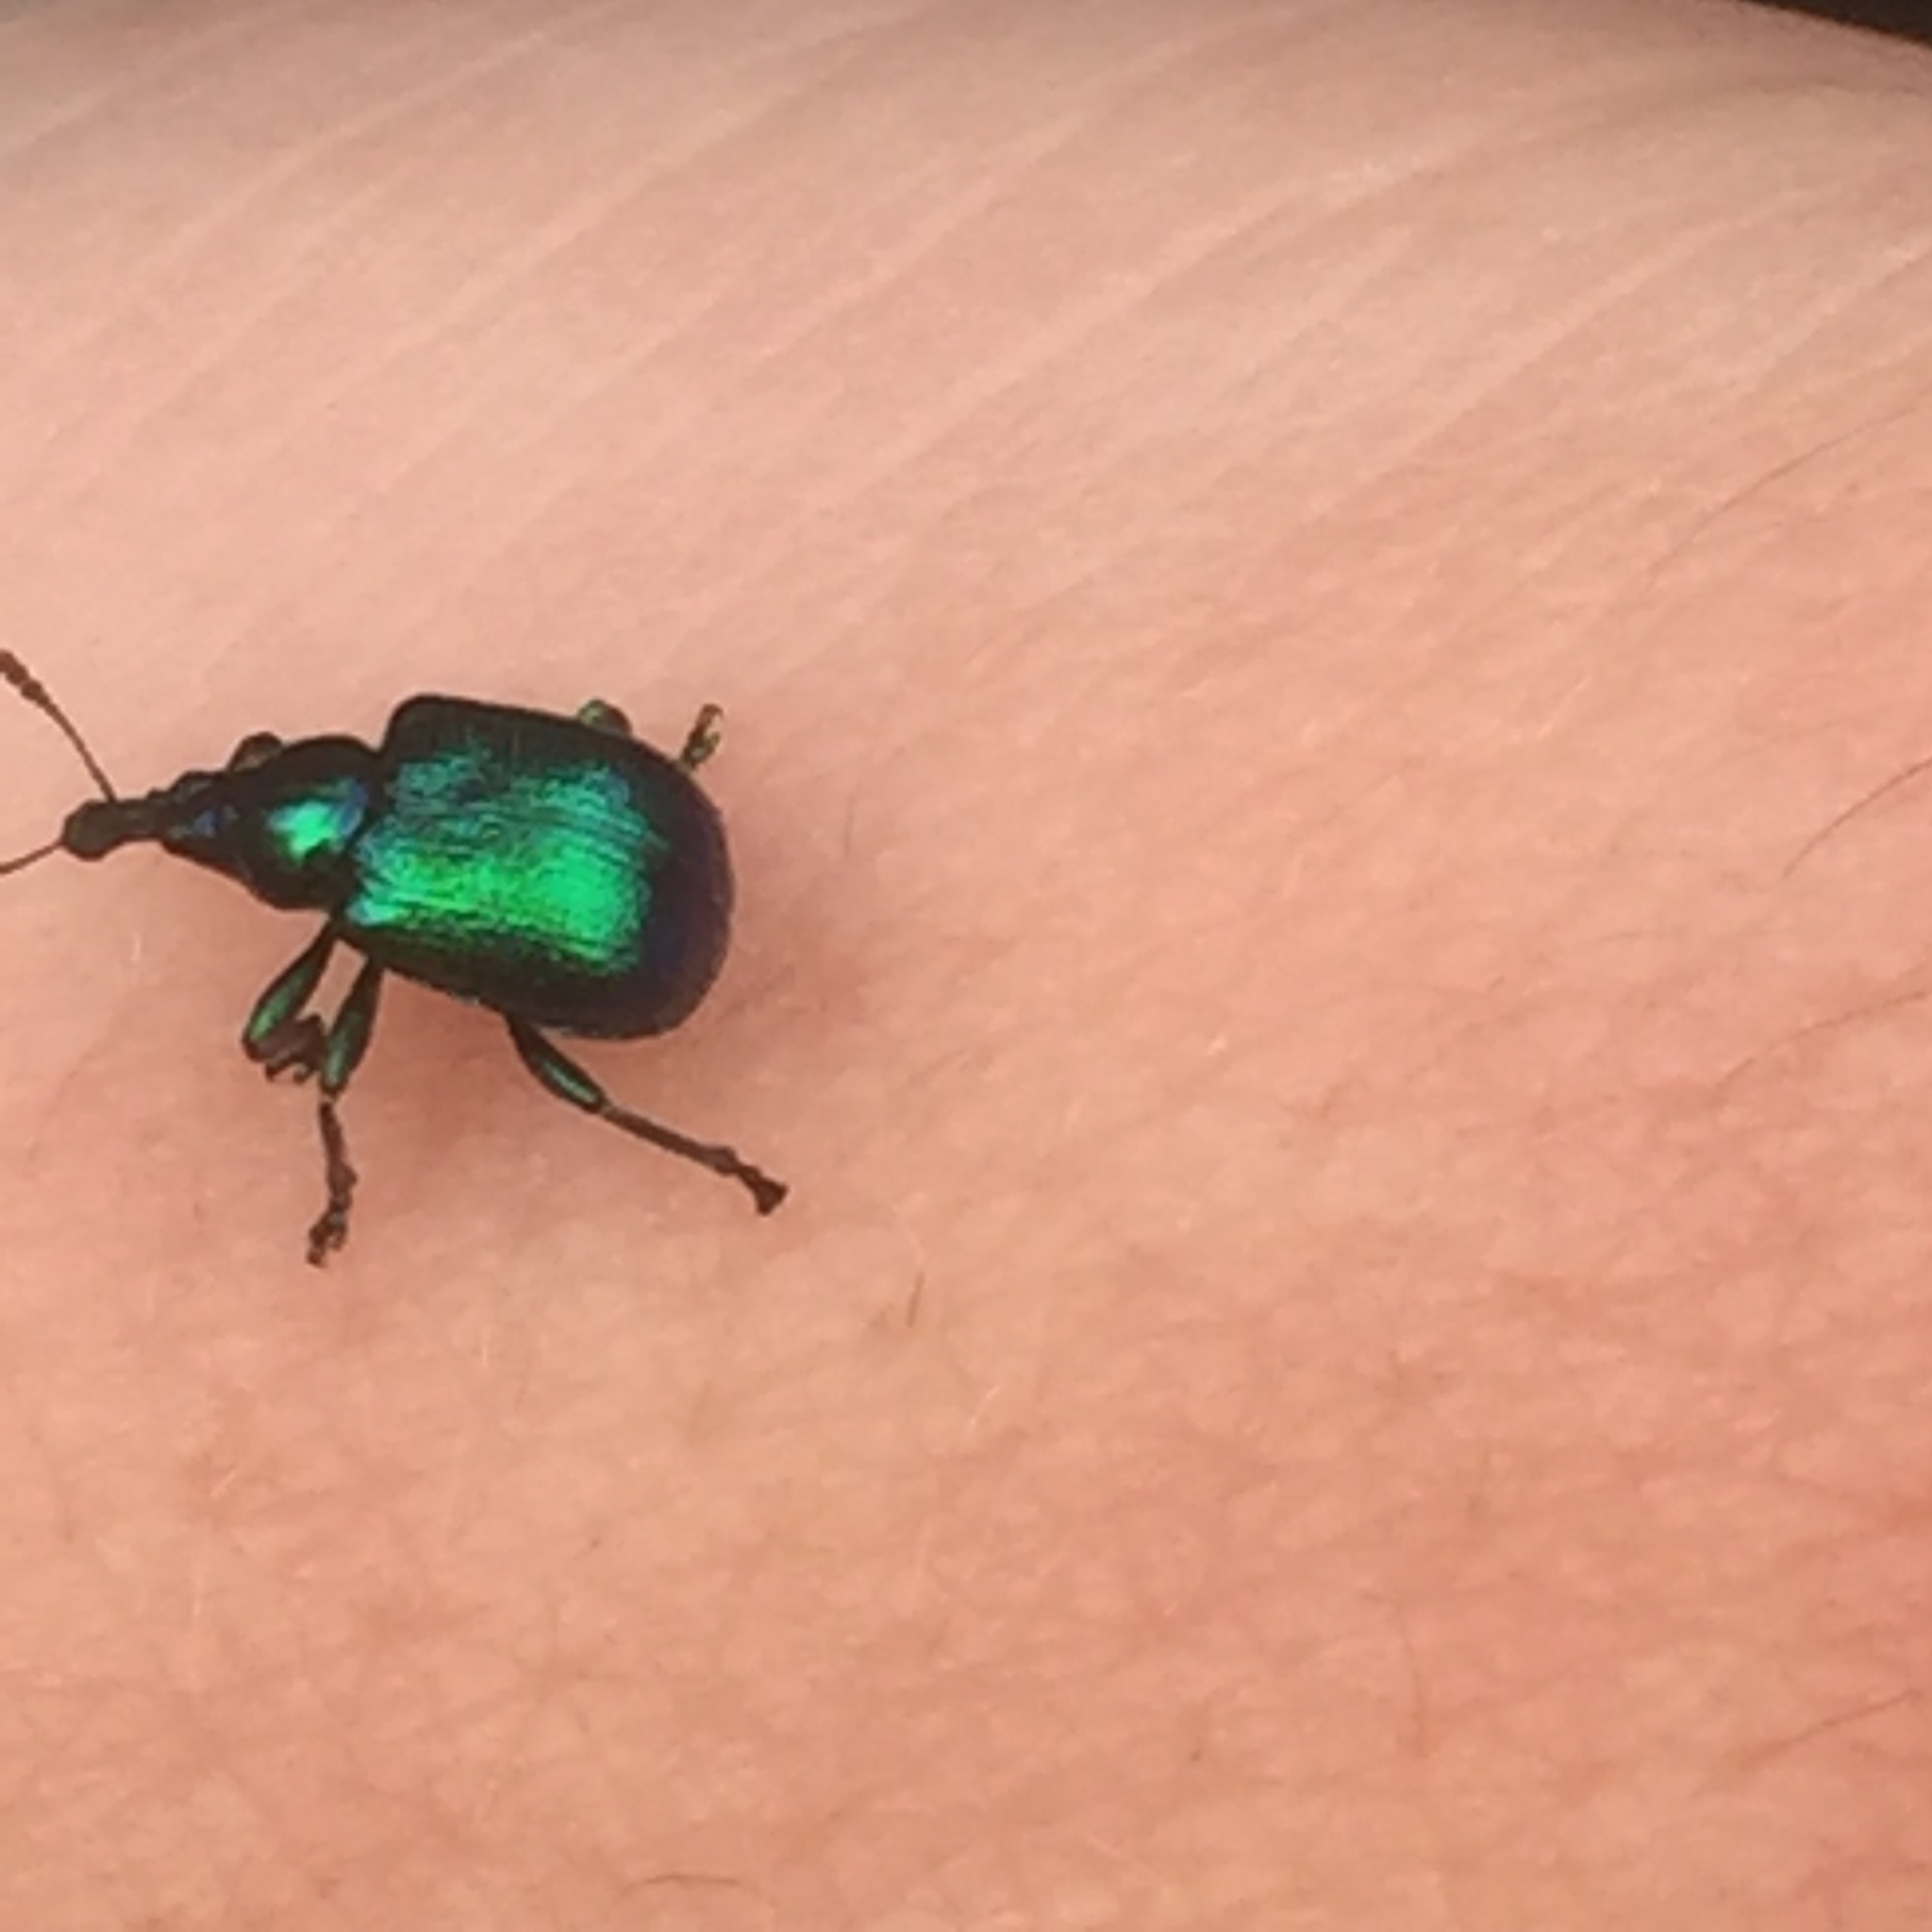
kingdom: Animalia
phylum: Arthropoda
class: Insecta
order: Coleoptera
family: Attelabidae
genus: Byctiscus
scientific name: Byctiscus betulae
